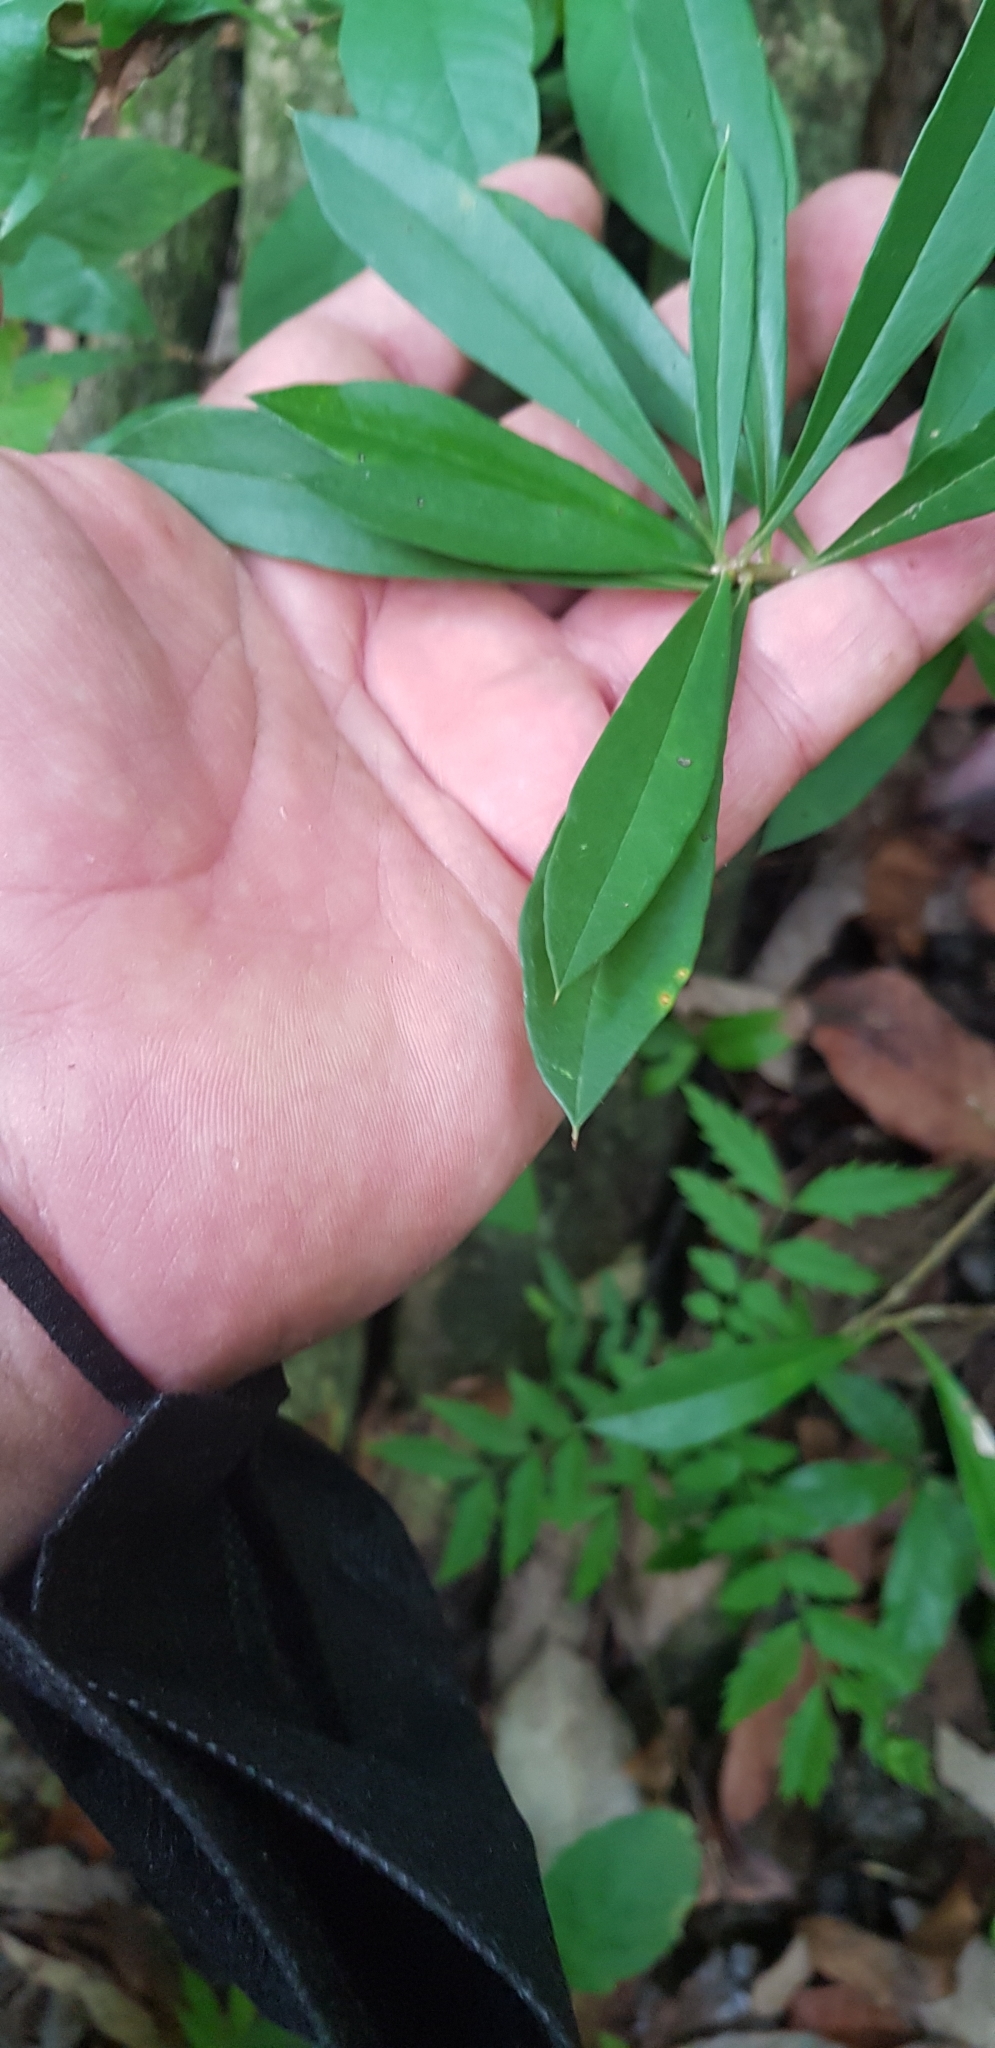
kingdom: Plantae
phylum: Tracheophyta
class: Magnoliopsida
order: Ericales
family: Primulaceae
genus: Bonellia
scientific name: Bonellia macrocarpa
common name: Primrose
